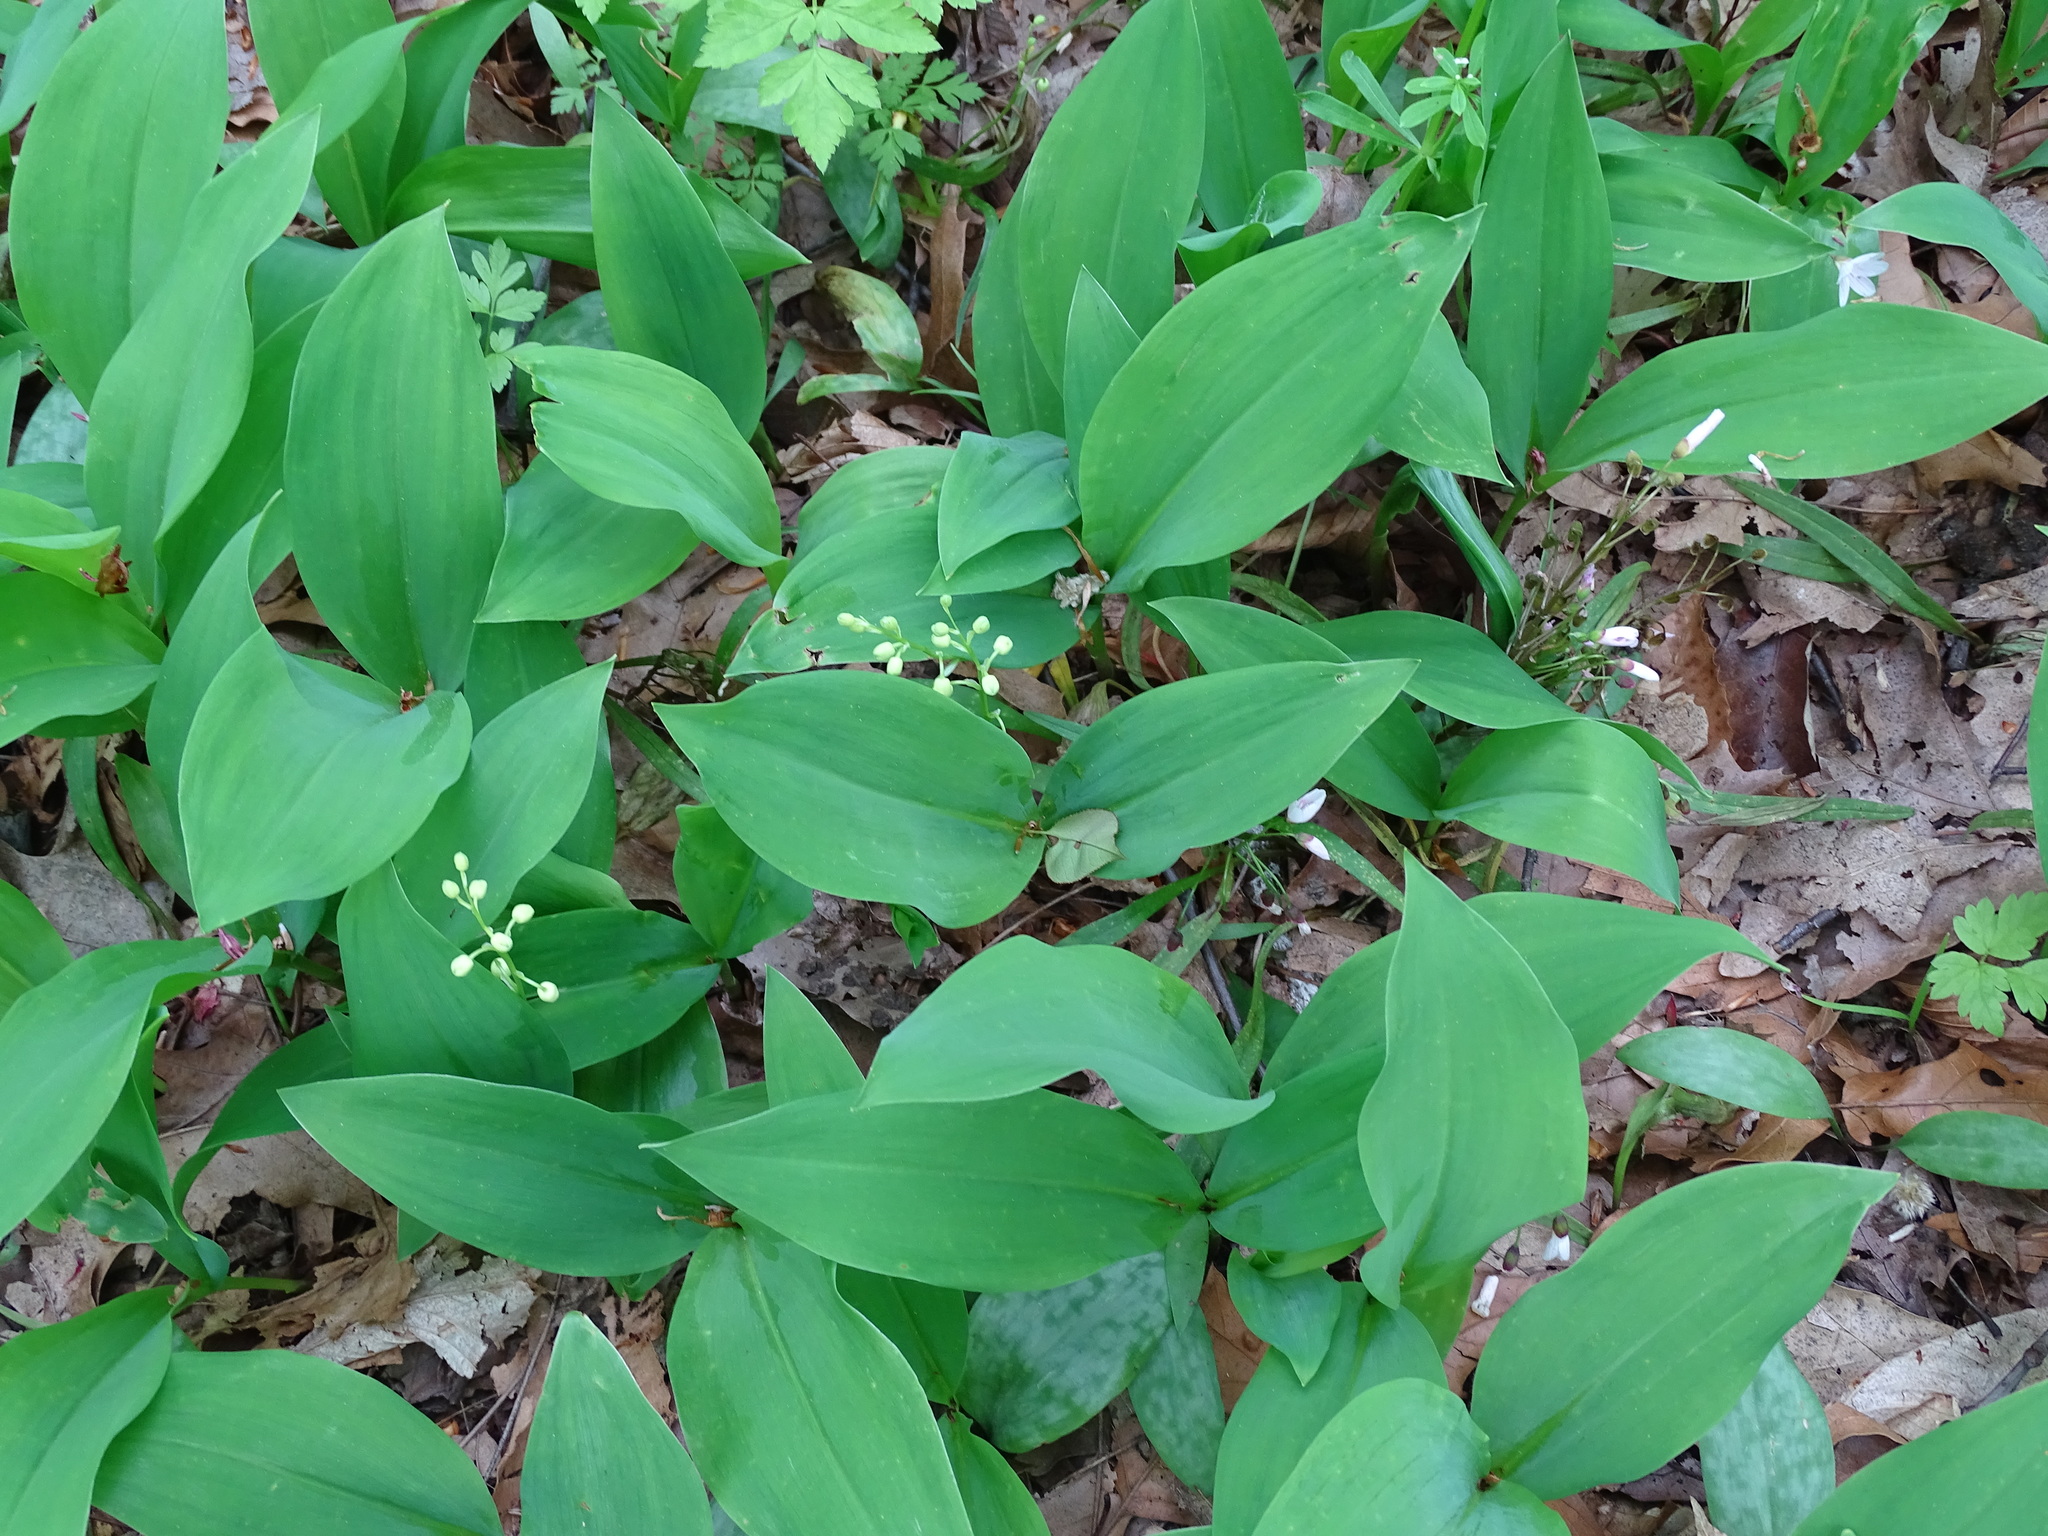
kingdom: Plantae
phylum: Tracheophyta
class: Liliopsida
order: Asparagales
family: Asparagaceae
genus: Convallaria
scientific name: Convallaria majalis
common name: Lily-of-the-valley
